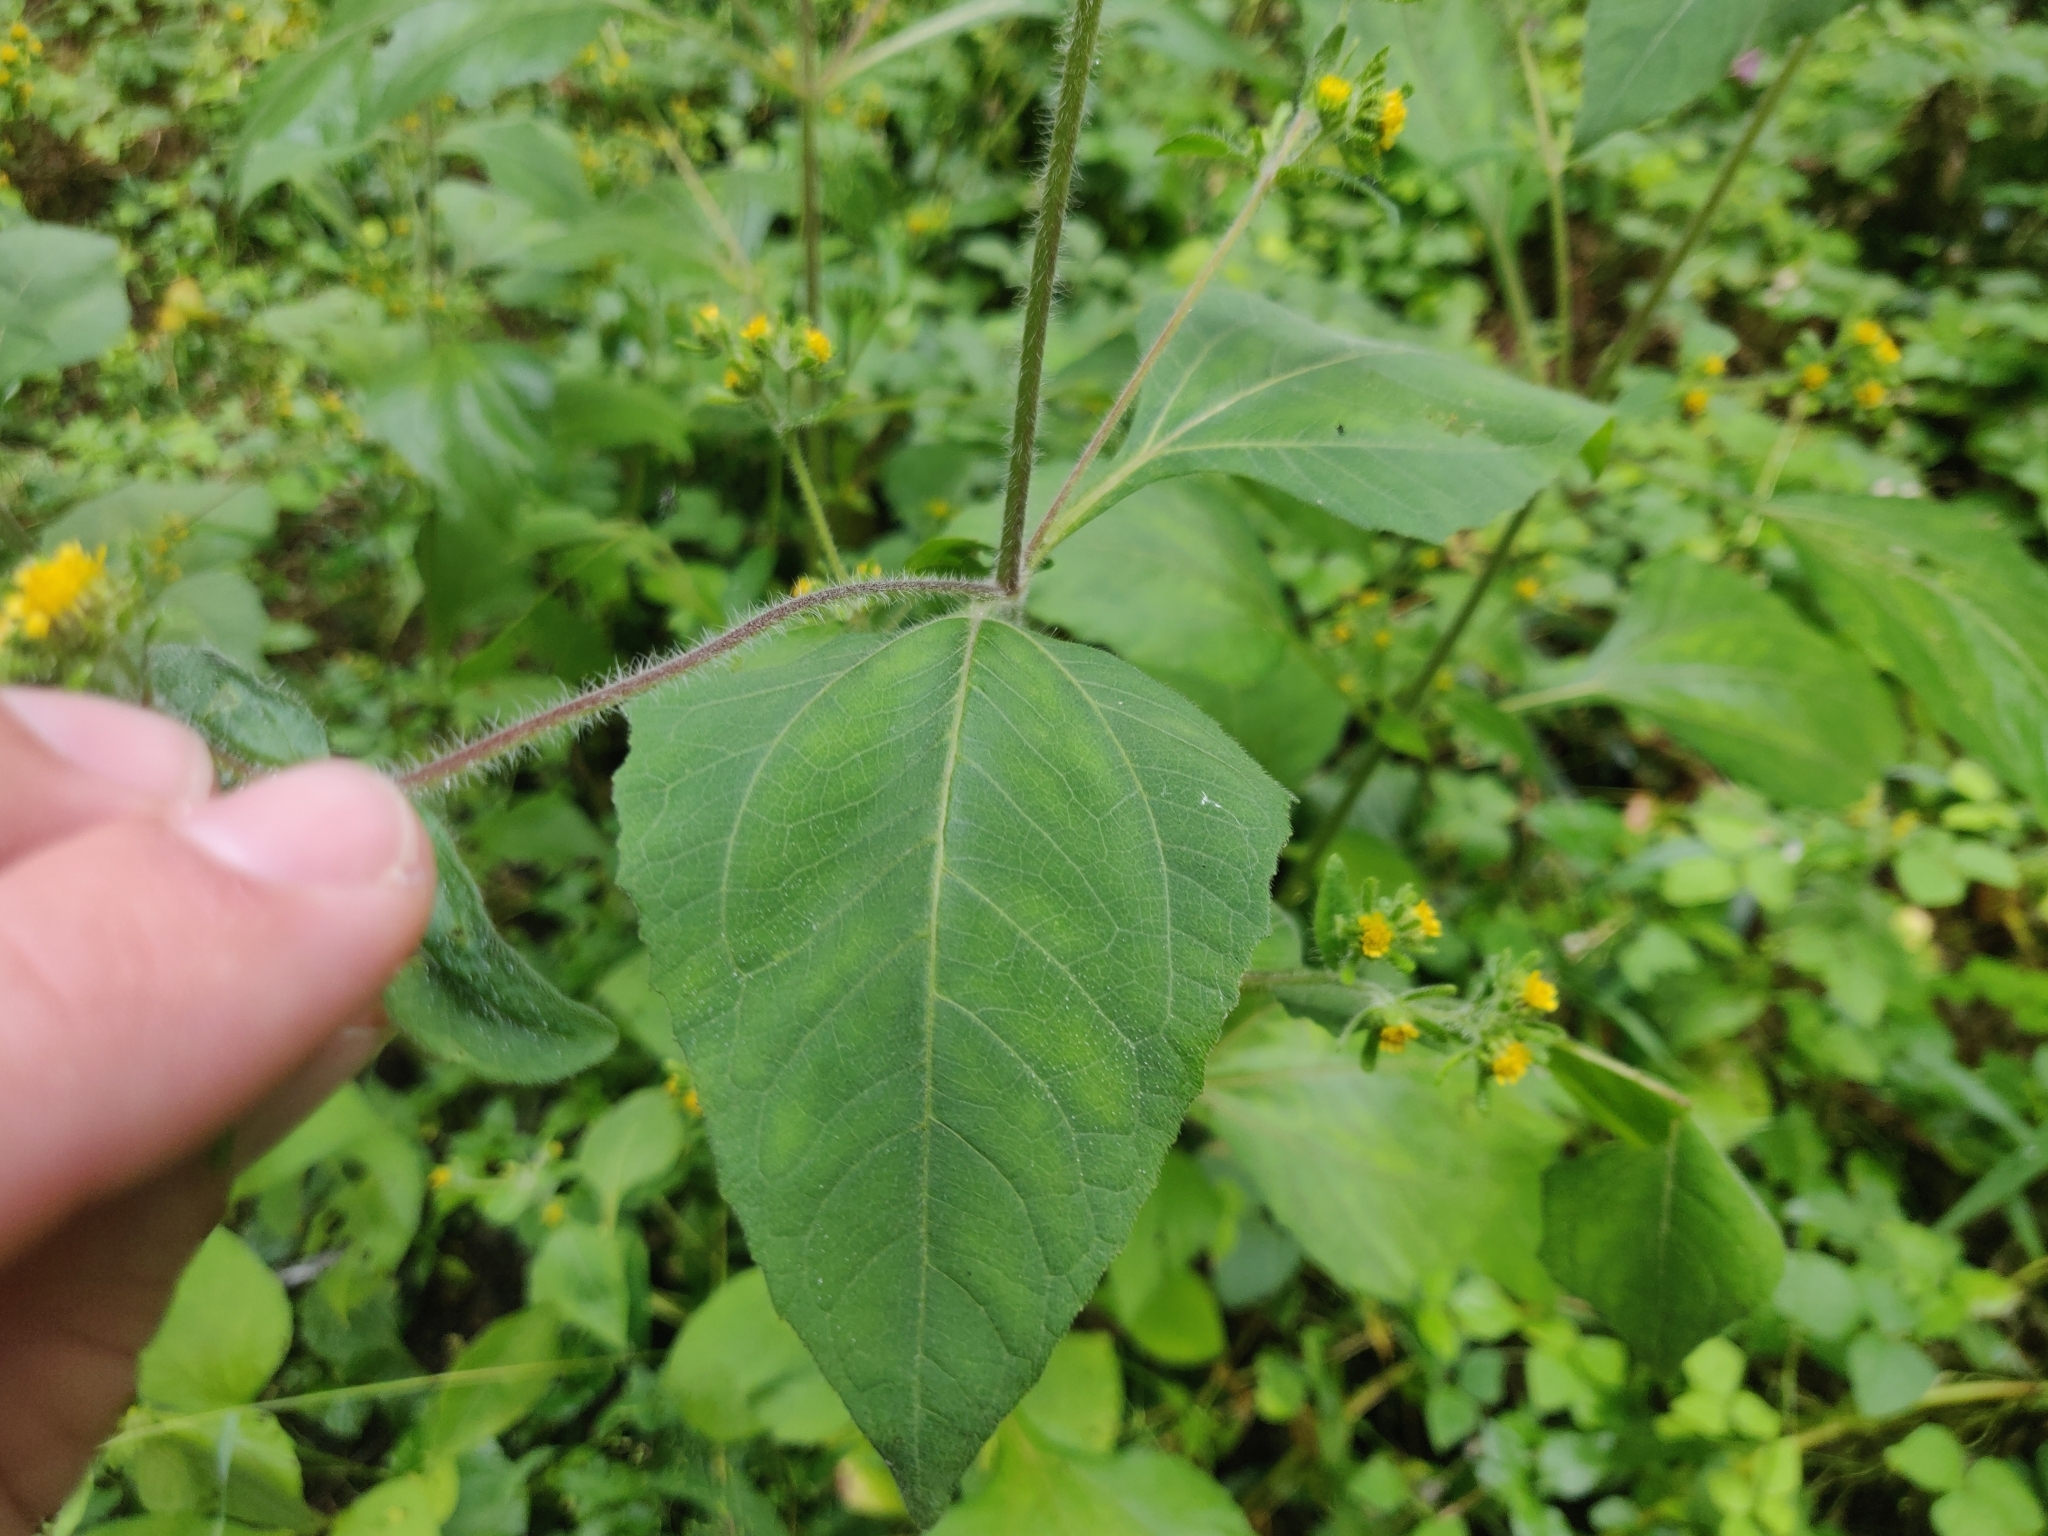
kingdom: Plantae
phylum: Tracheophyta
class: Magnoliopsida
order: Asterales
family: Asteraceae
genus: Sigesbeckia
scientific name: Sigesbeckia pubescens
